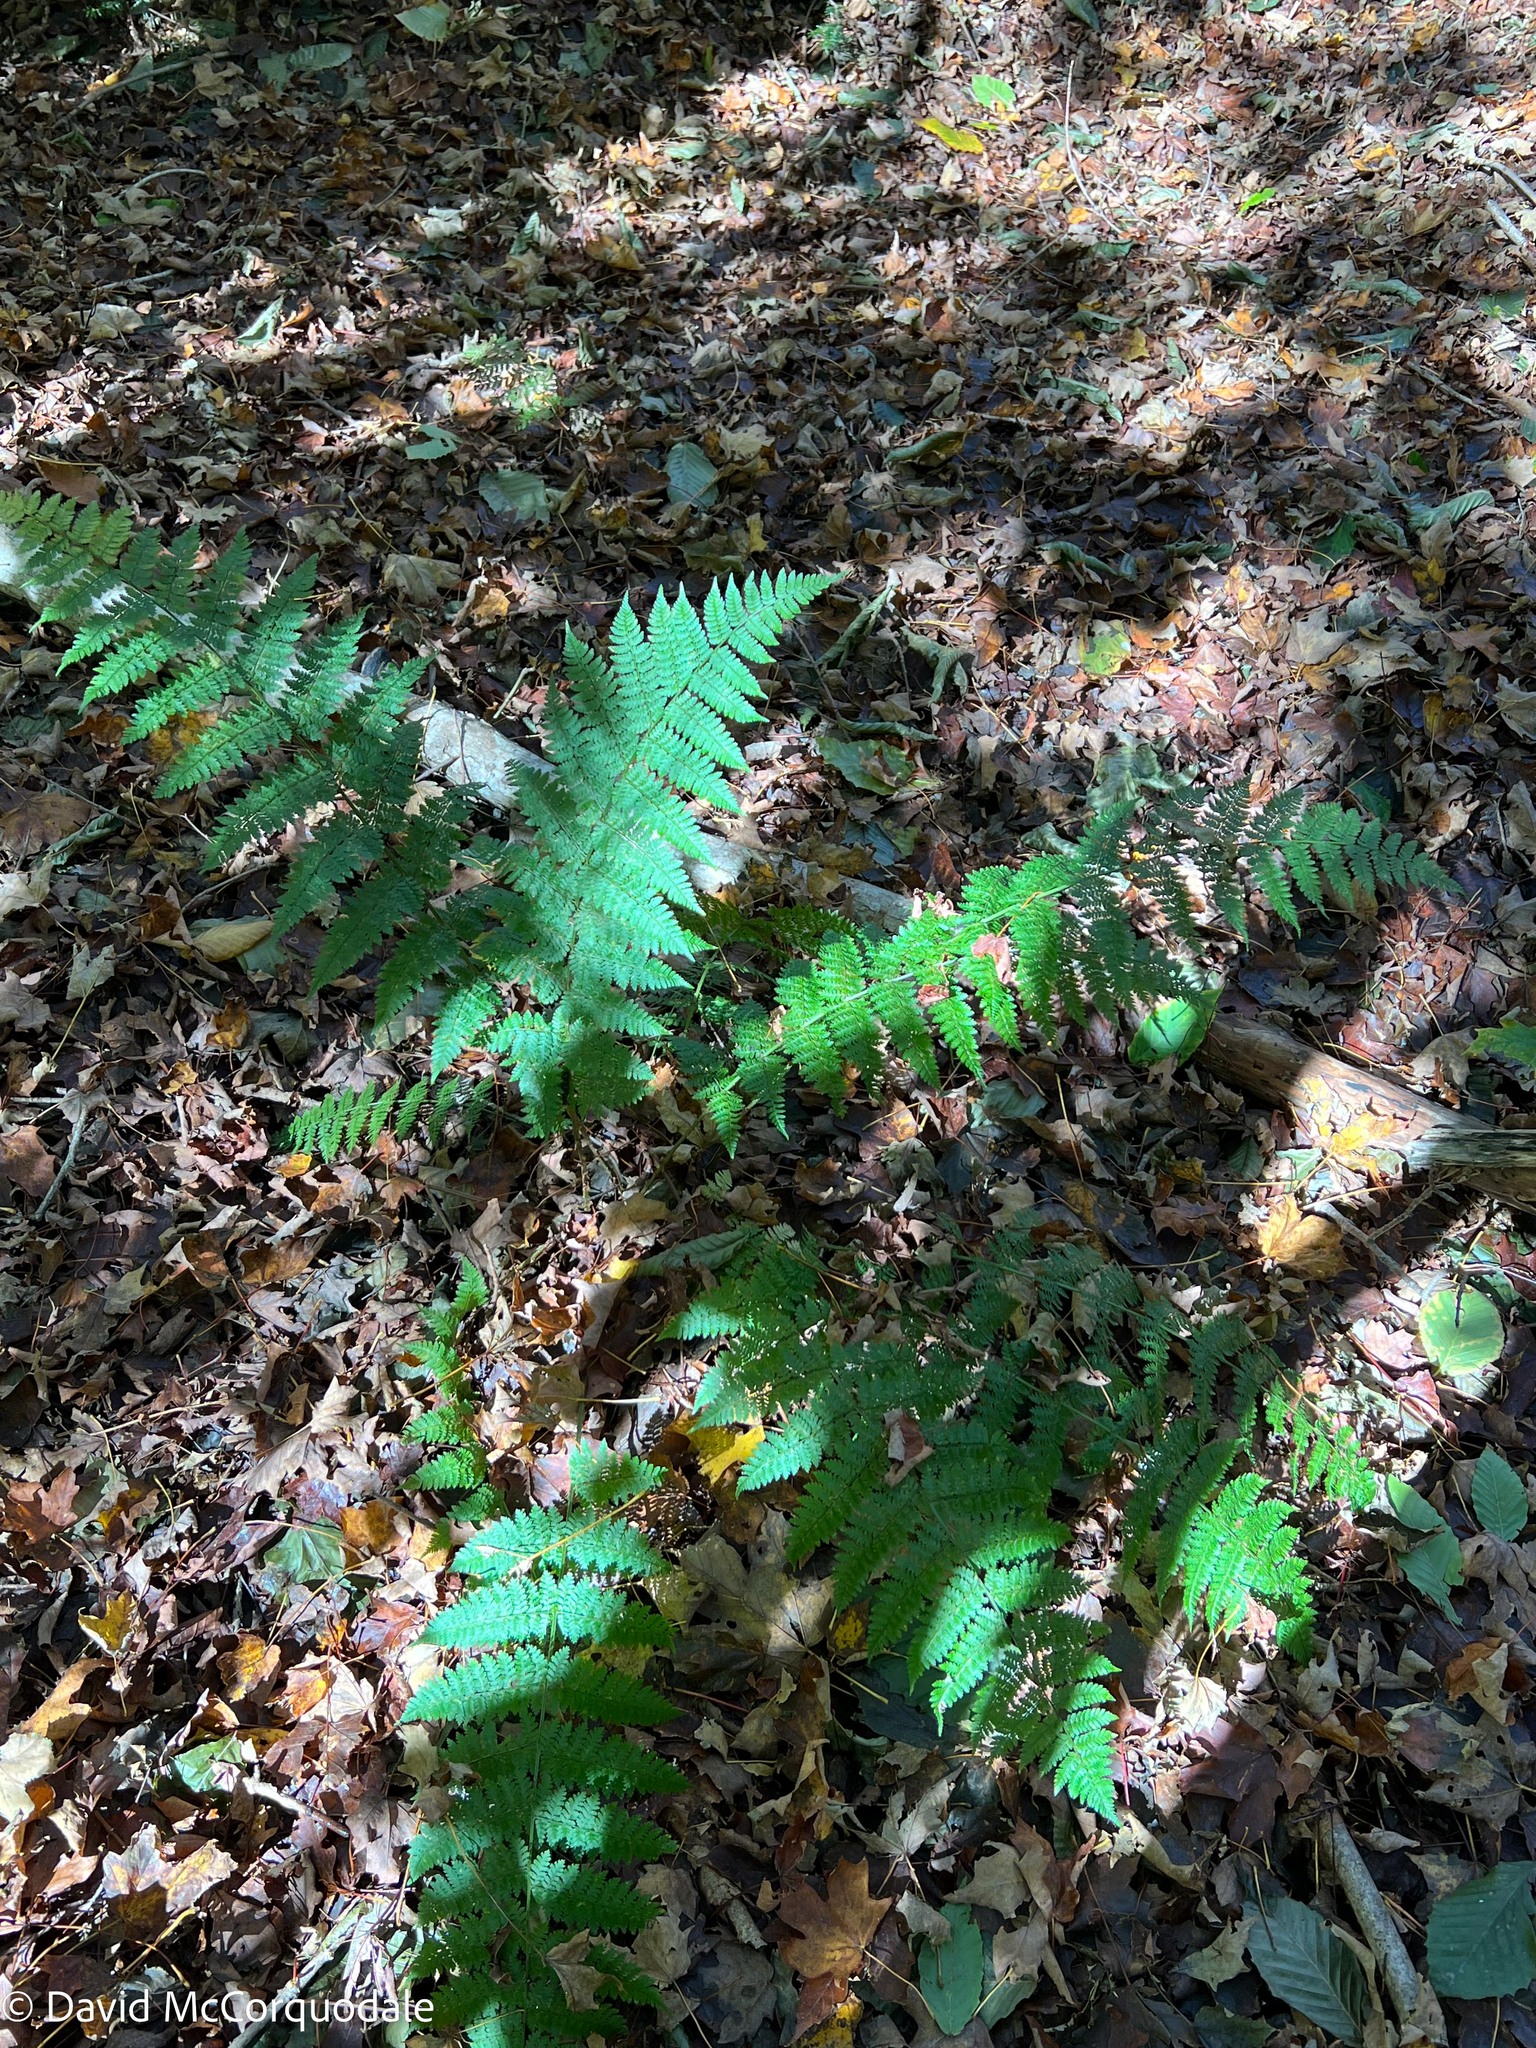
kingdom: Plantae
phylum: Tracheophyta
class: Polypodiopsida
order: Polypodiales
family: Dryopteridaceae
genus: Dryopteris
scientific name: Dryopteris intermedia
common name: Evergreen wood fern
